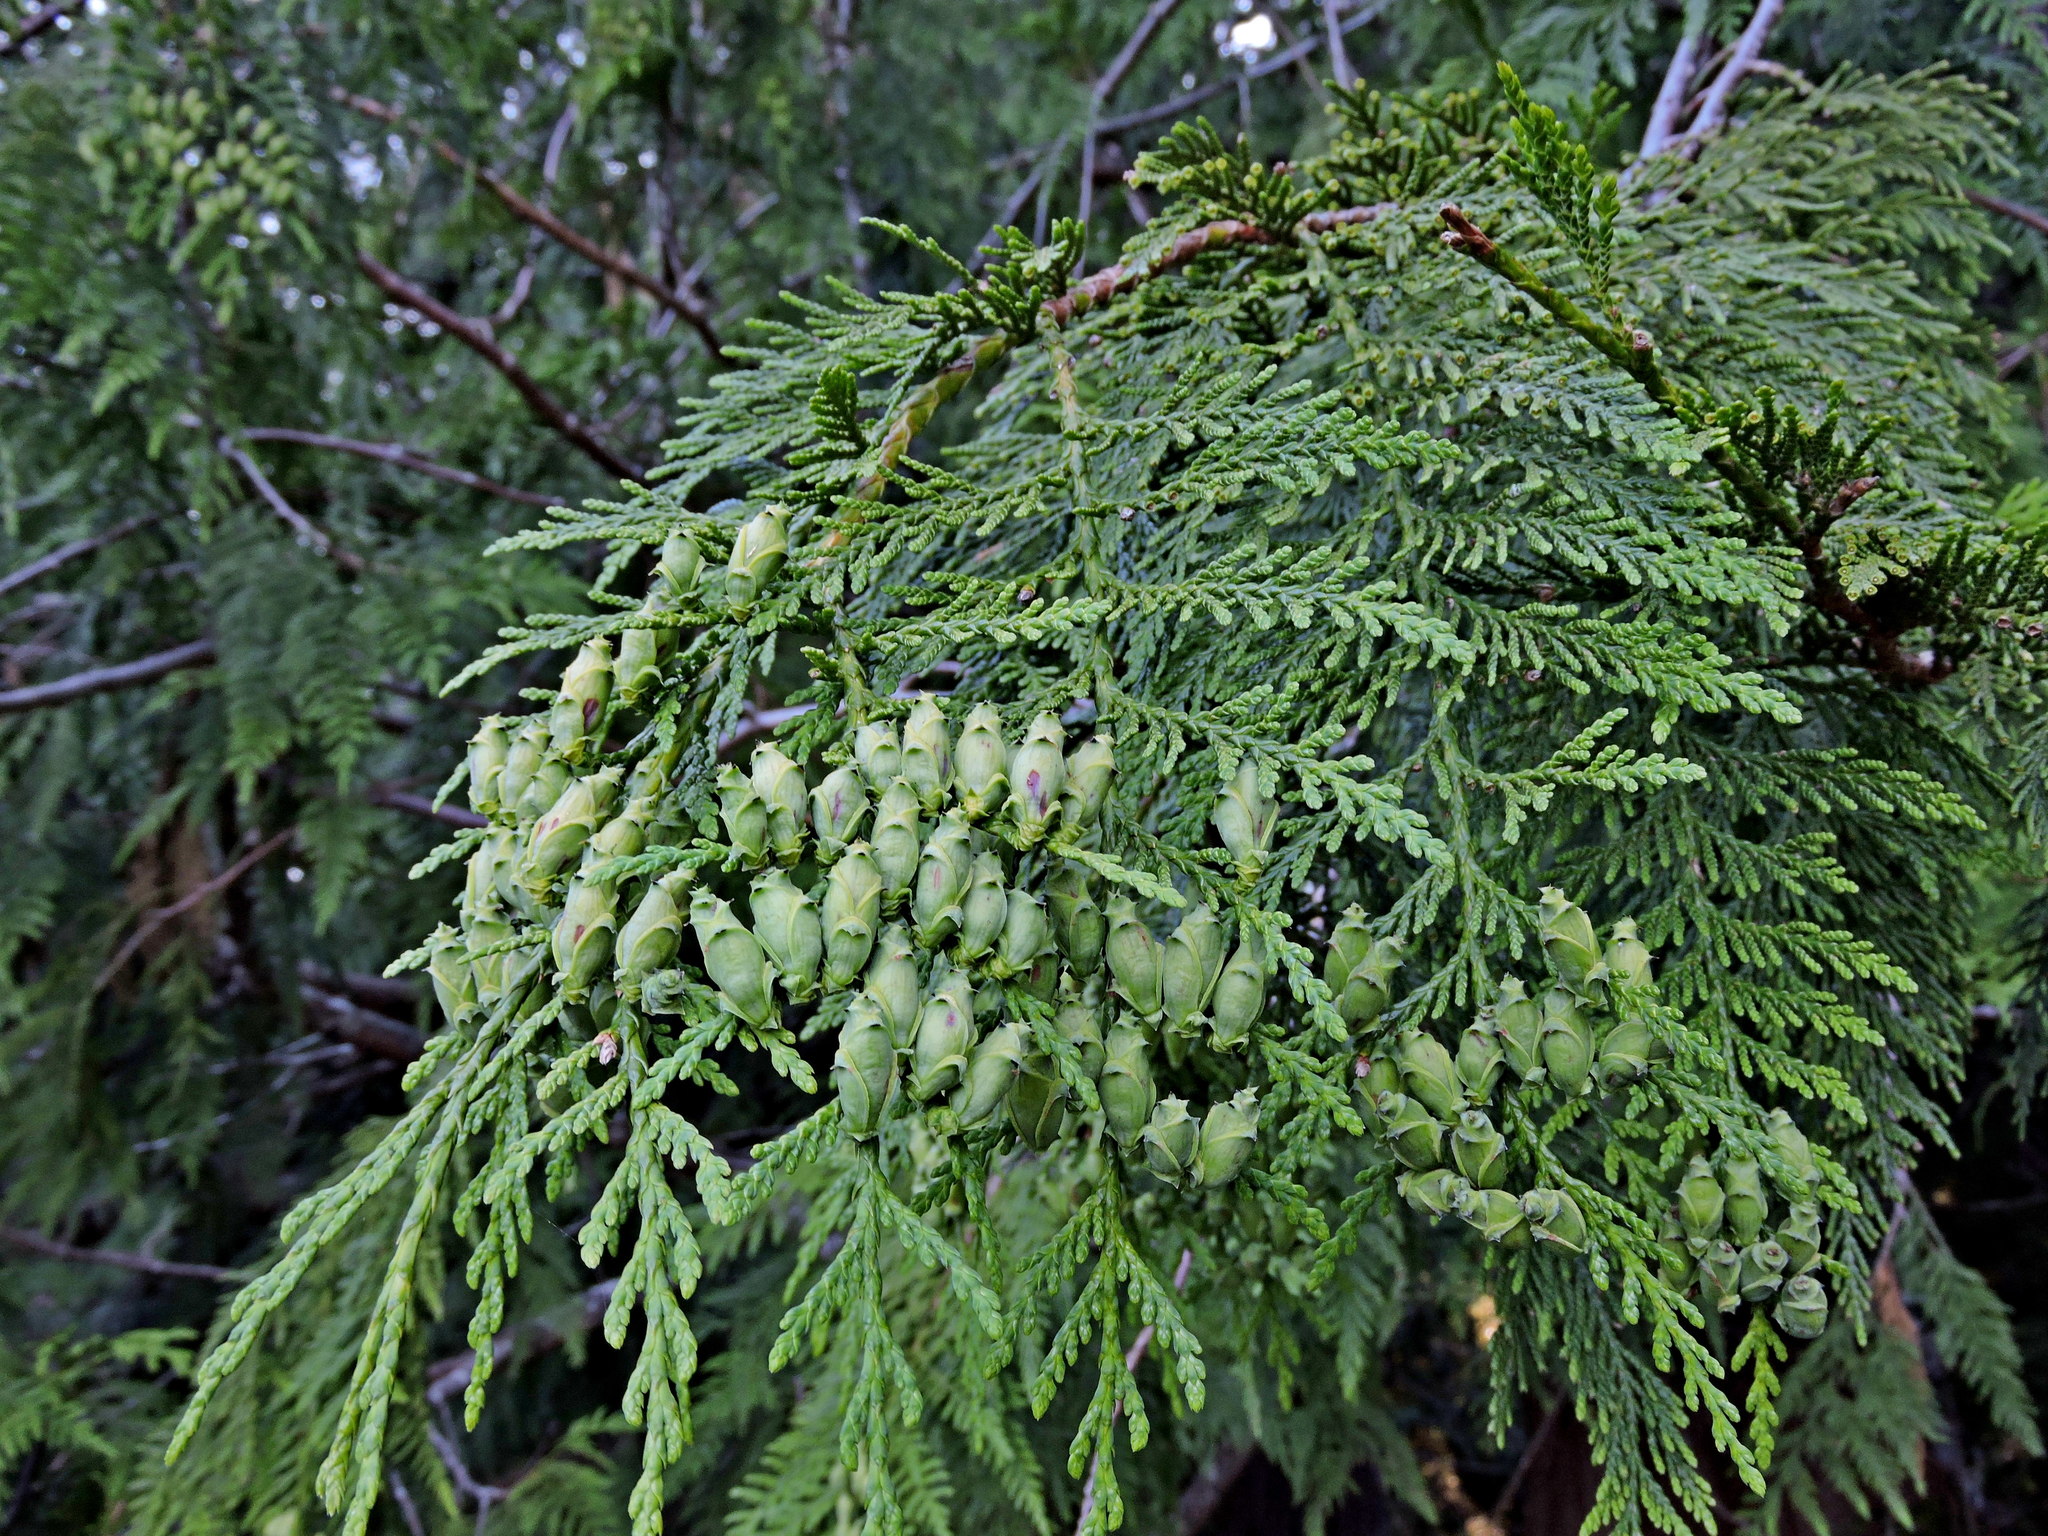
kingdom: Plantae
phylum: Tracheophyta
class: Pinopsida
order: Pinales
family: Cupressaceae
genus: Thuja
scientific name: Thuja plicata
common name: Western red-cedar
